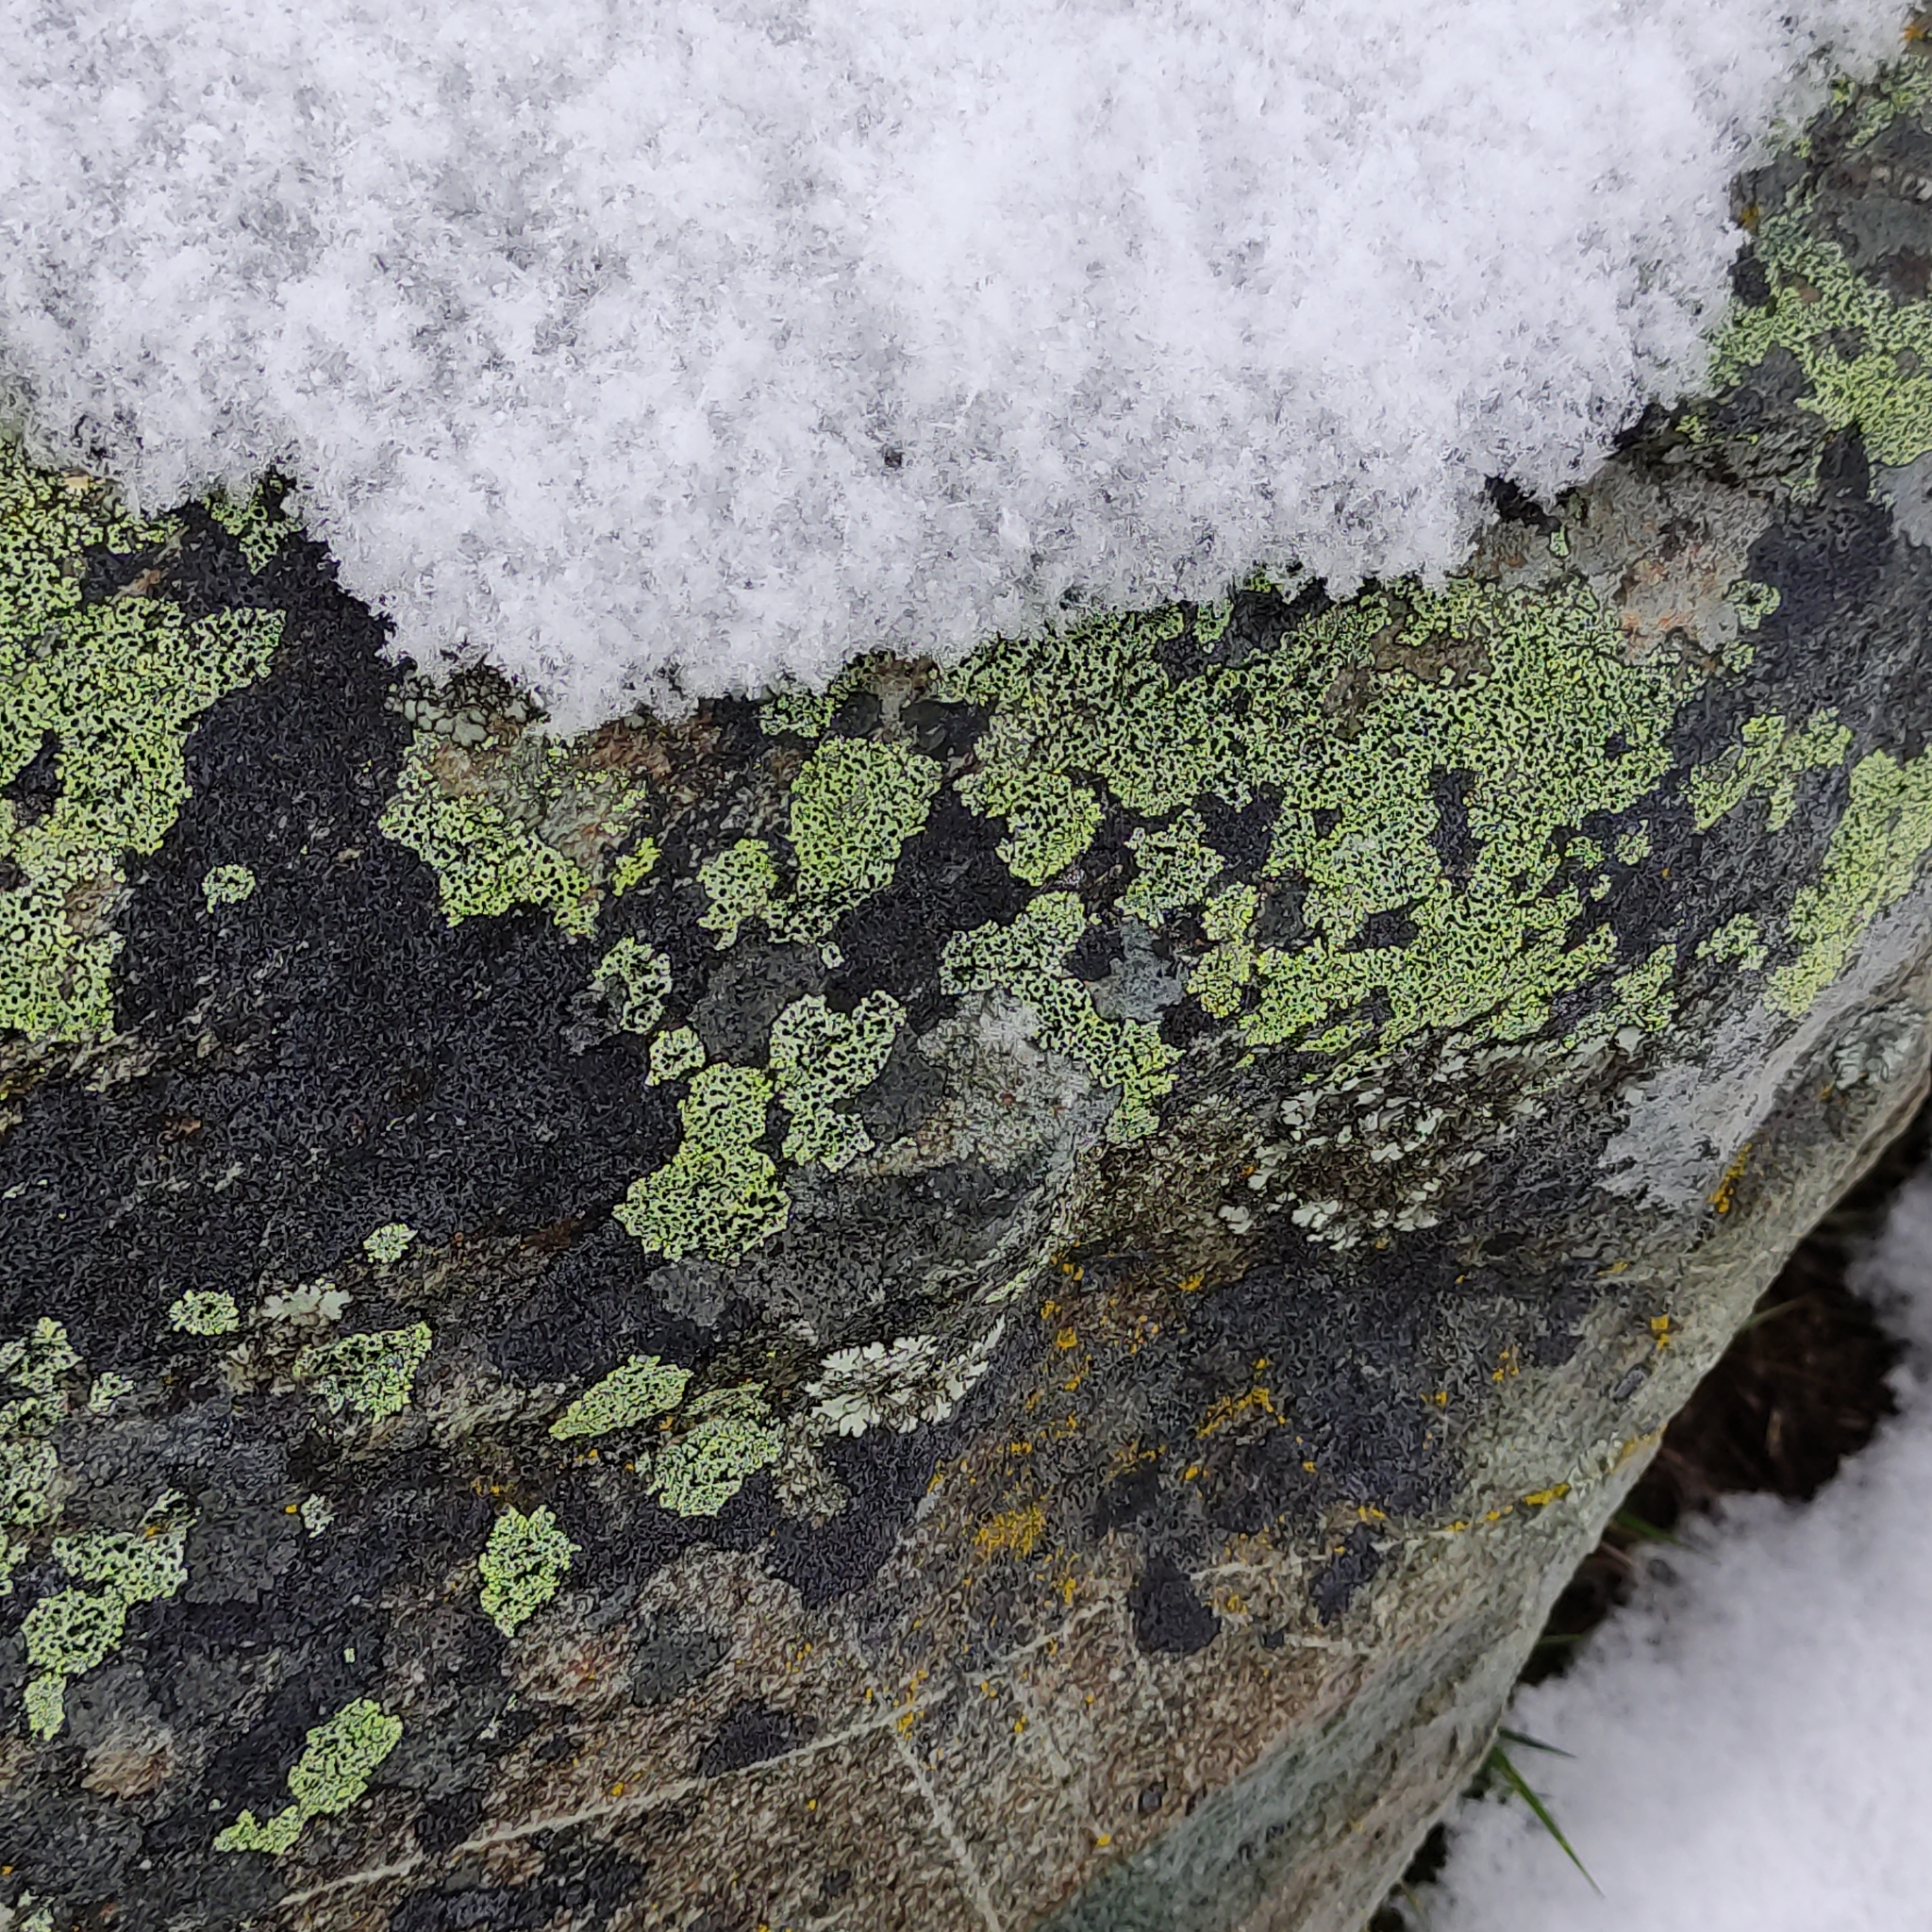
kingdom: Fungi
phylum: Ascomycota
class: Lecanoromycetes
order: Rhizocarpales
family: Rhizocarpaceae
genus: Rhizocarpon
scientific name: Rhizocarpon geographicum
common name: Yellow map lichen
